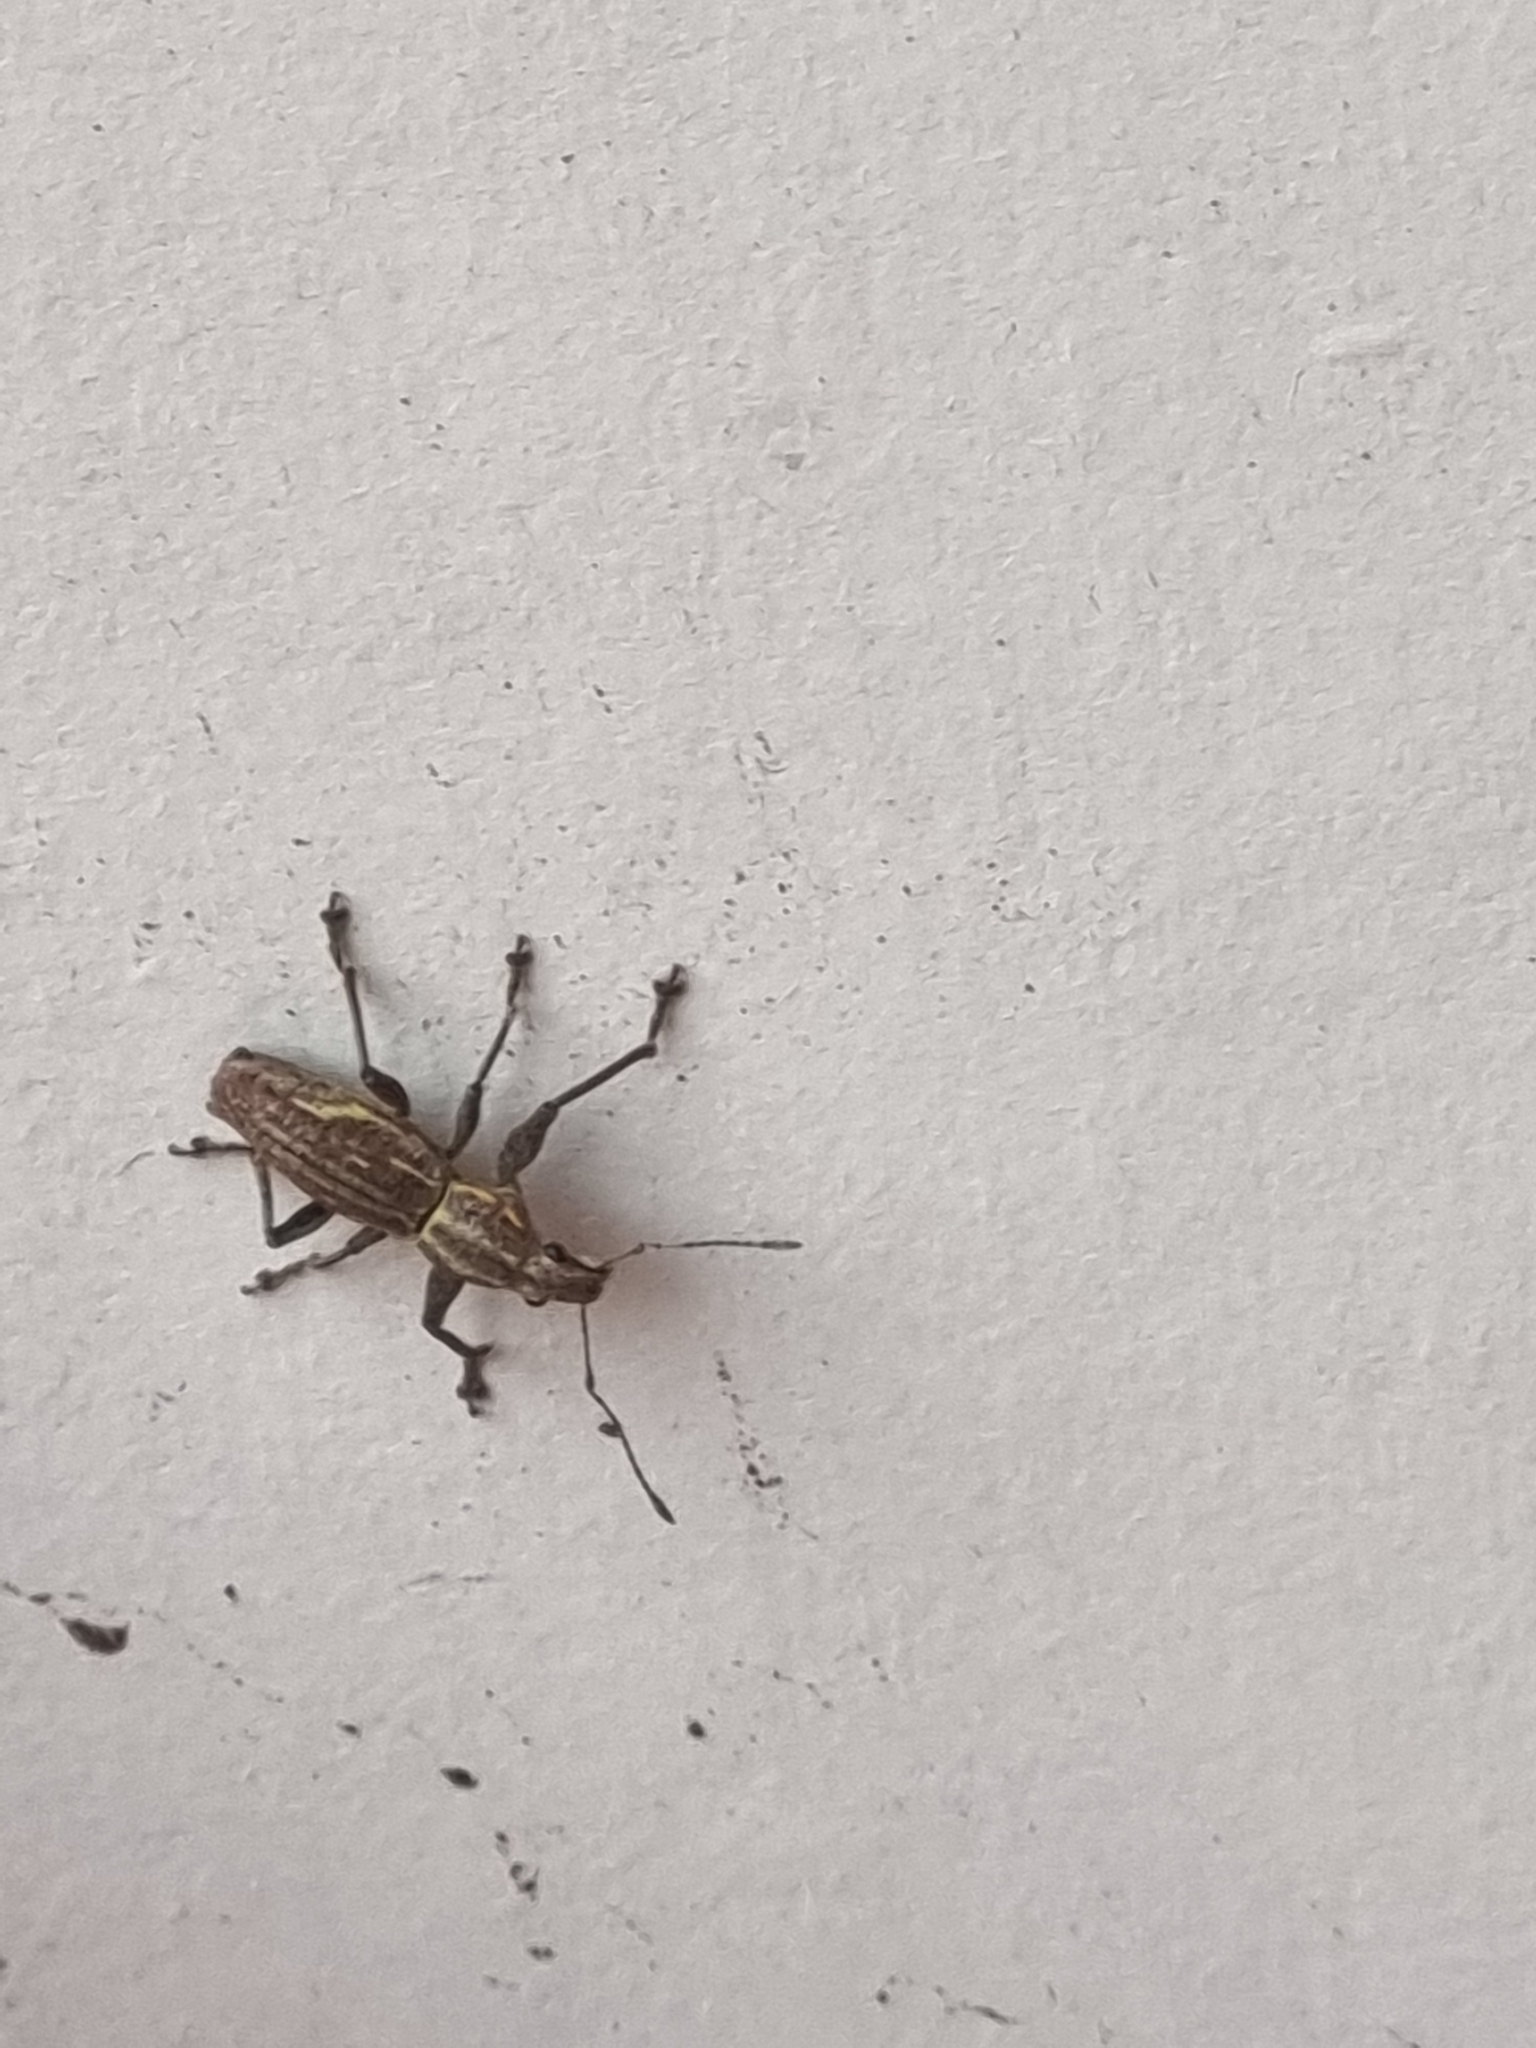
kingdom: Animalia
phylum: Arthropoda
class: Insecta
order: Coleoptera
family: Curculionidae
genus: Naupactus
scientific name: Naupactus xanthographus
